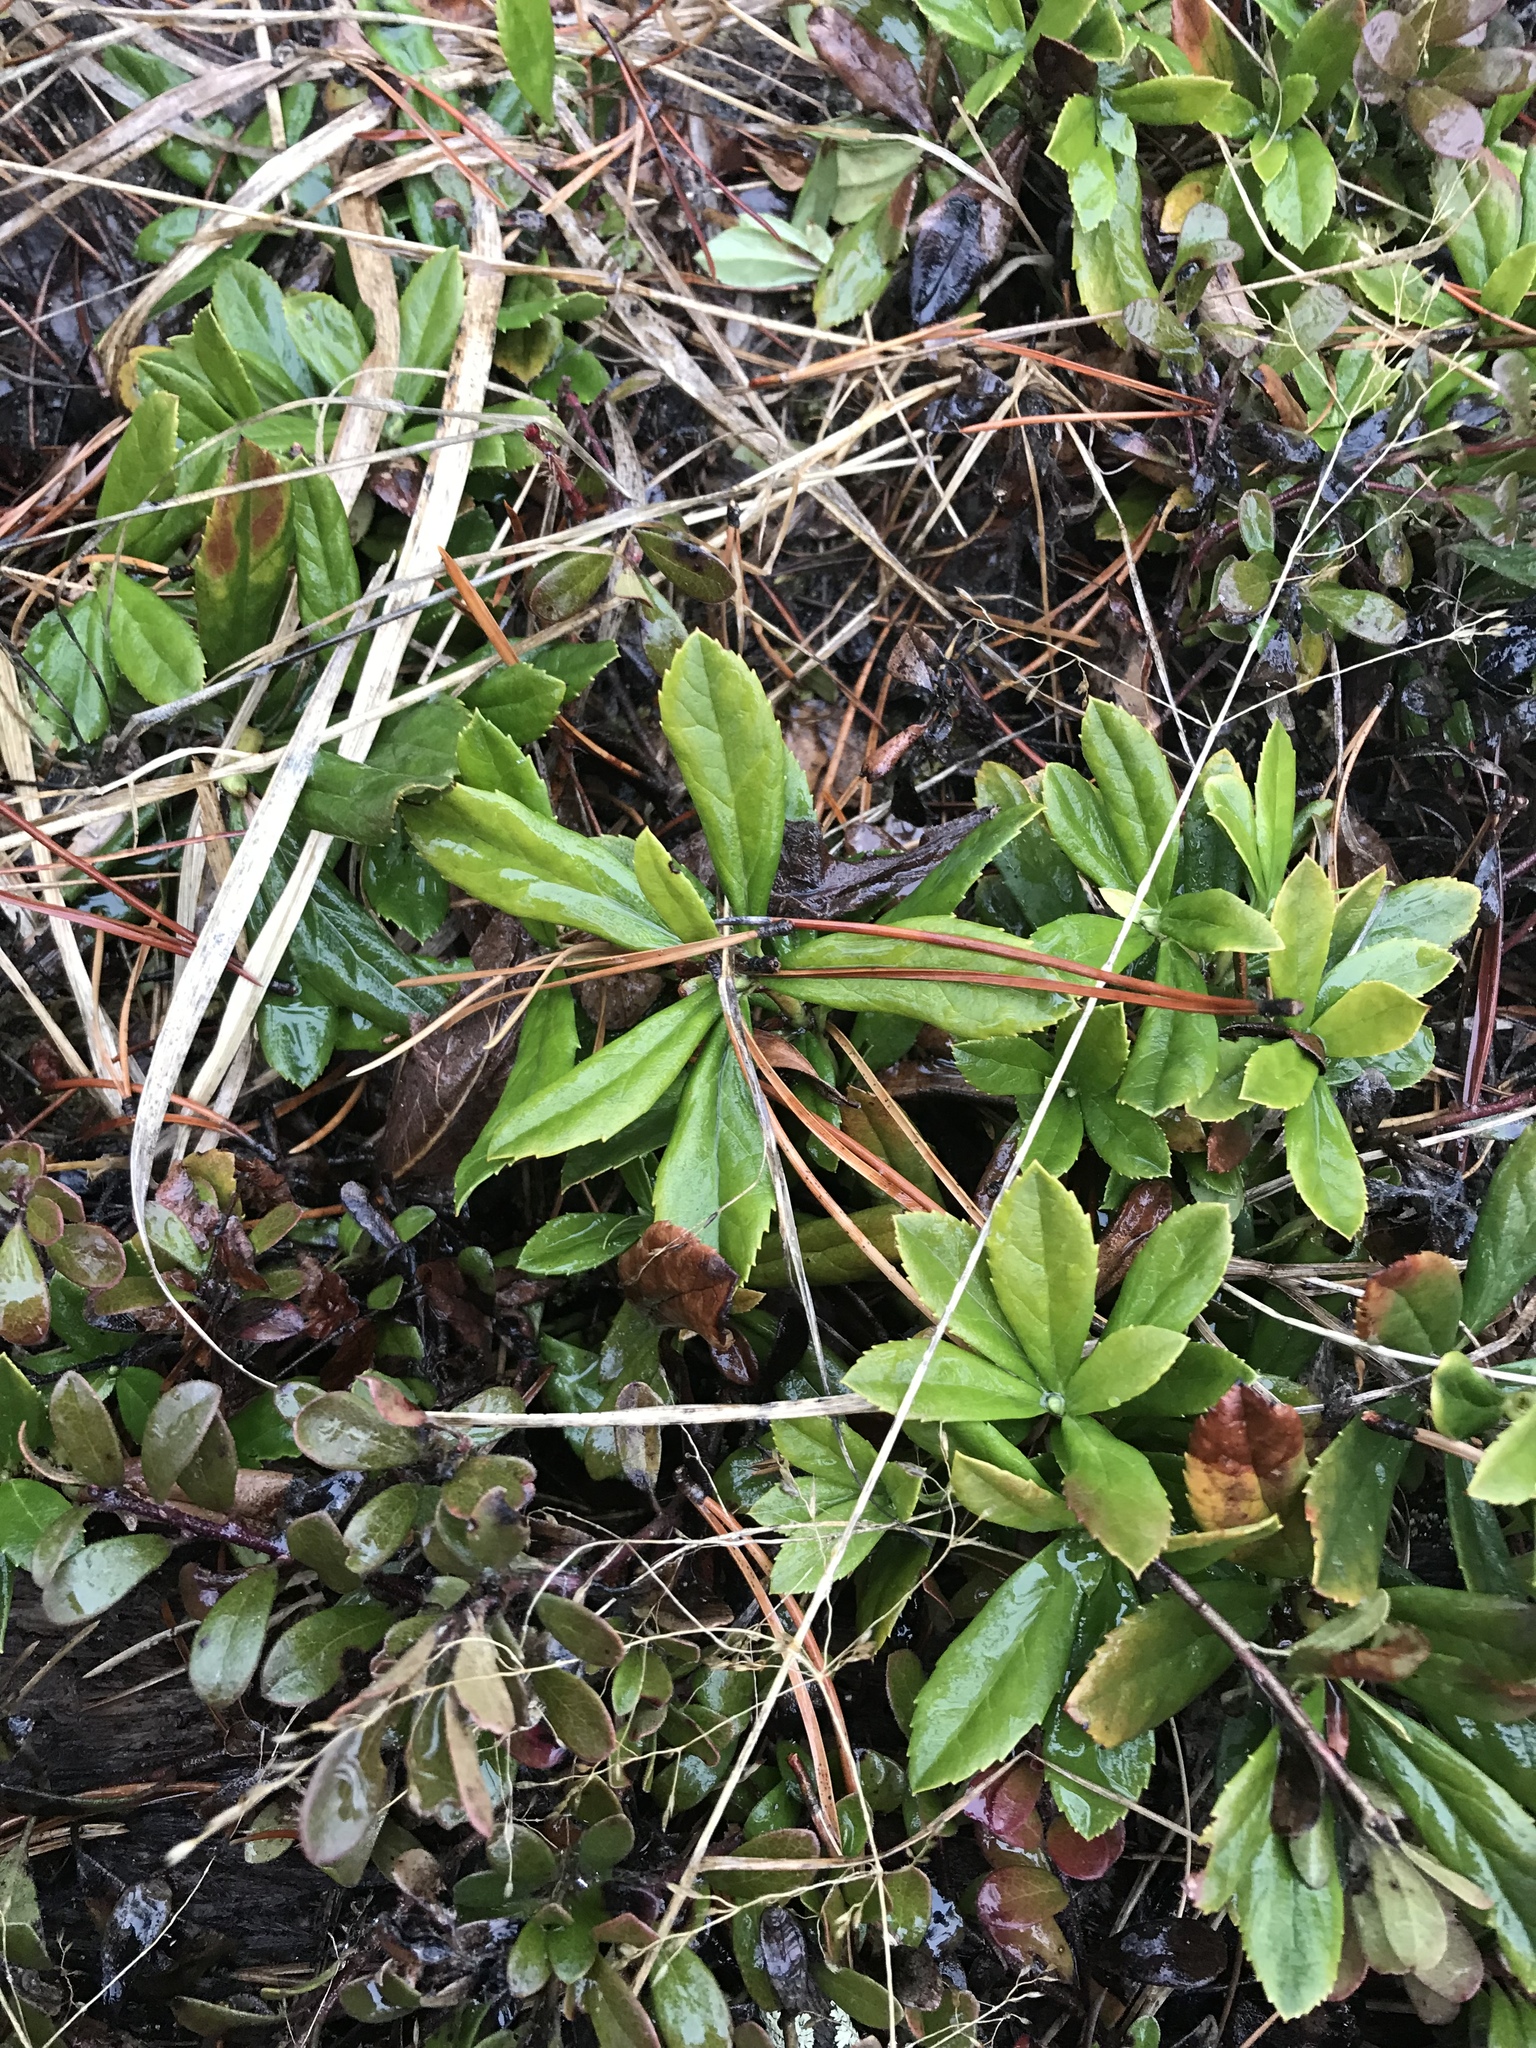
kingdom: Plantae
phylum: Tracheophyta
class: Magnoliopsida
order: Ericales
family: Ericaceae
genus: Chimaphila
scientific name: Chimaphila umbellata
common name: Pipsissewa
